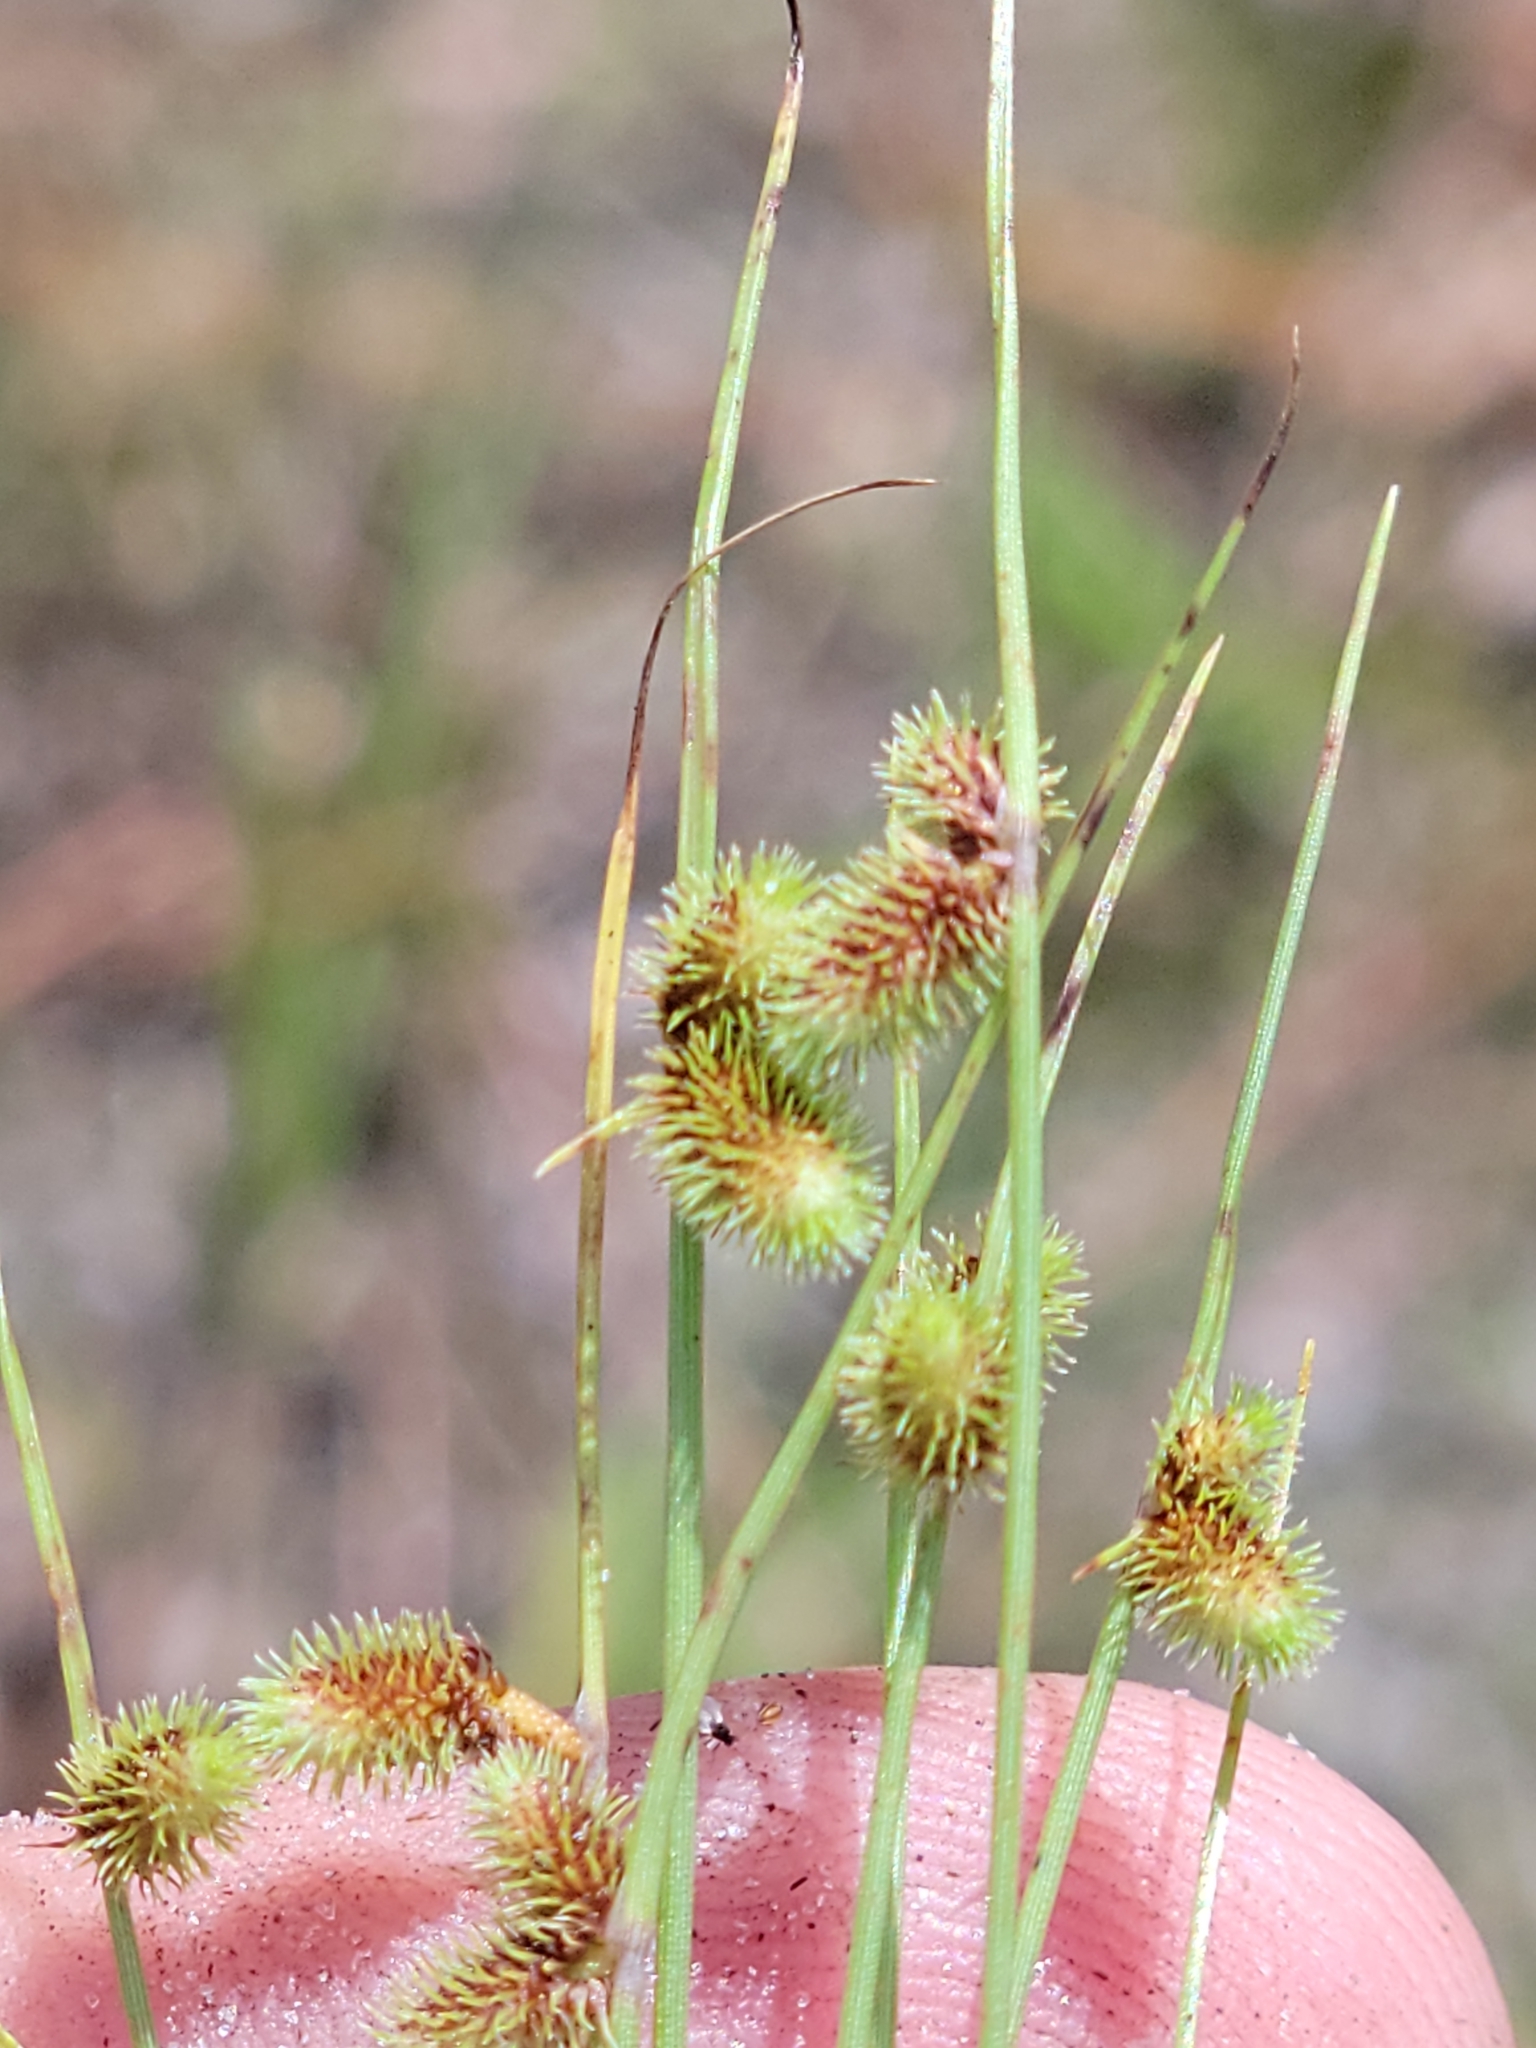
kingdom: Plantae
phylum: Tracheophyta
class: Liliopsida
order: Poales
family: Cyperaceae
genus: Cyperus
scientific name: Cyperus neochinensis
